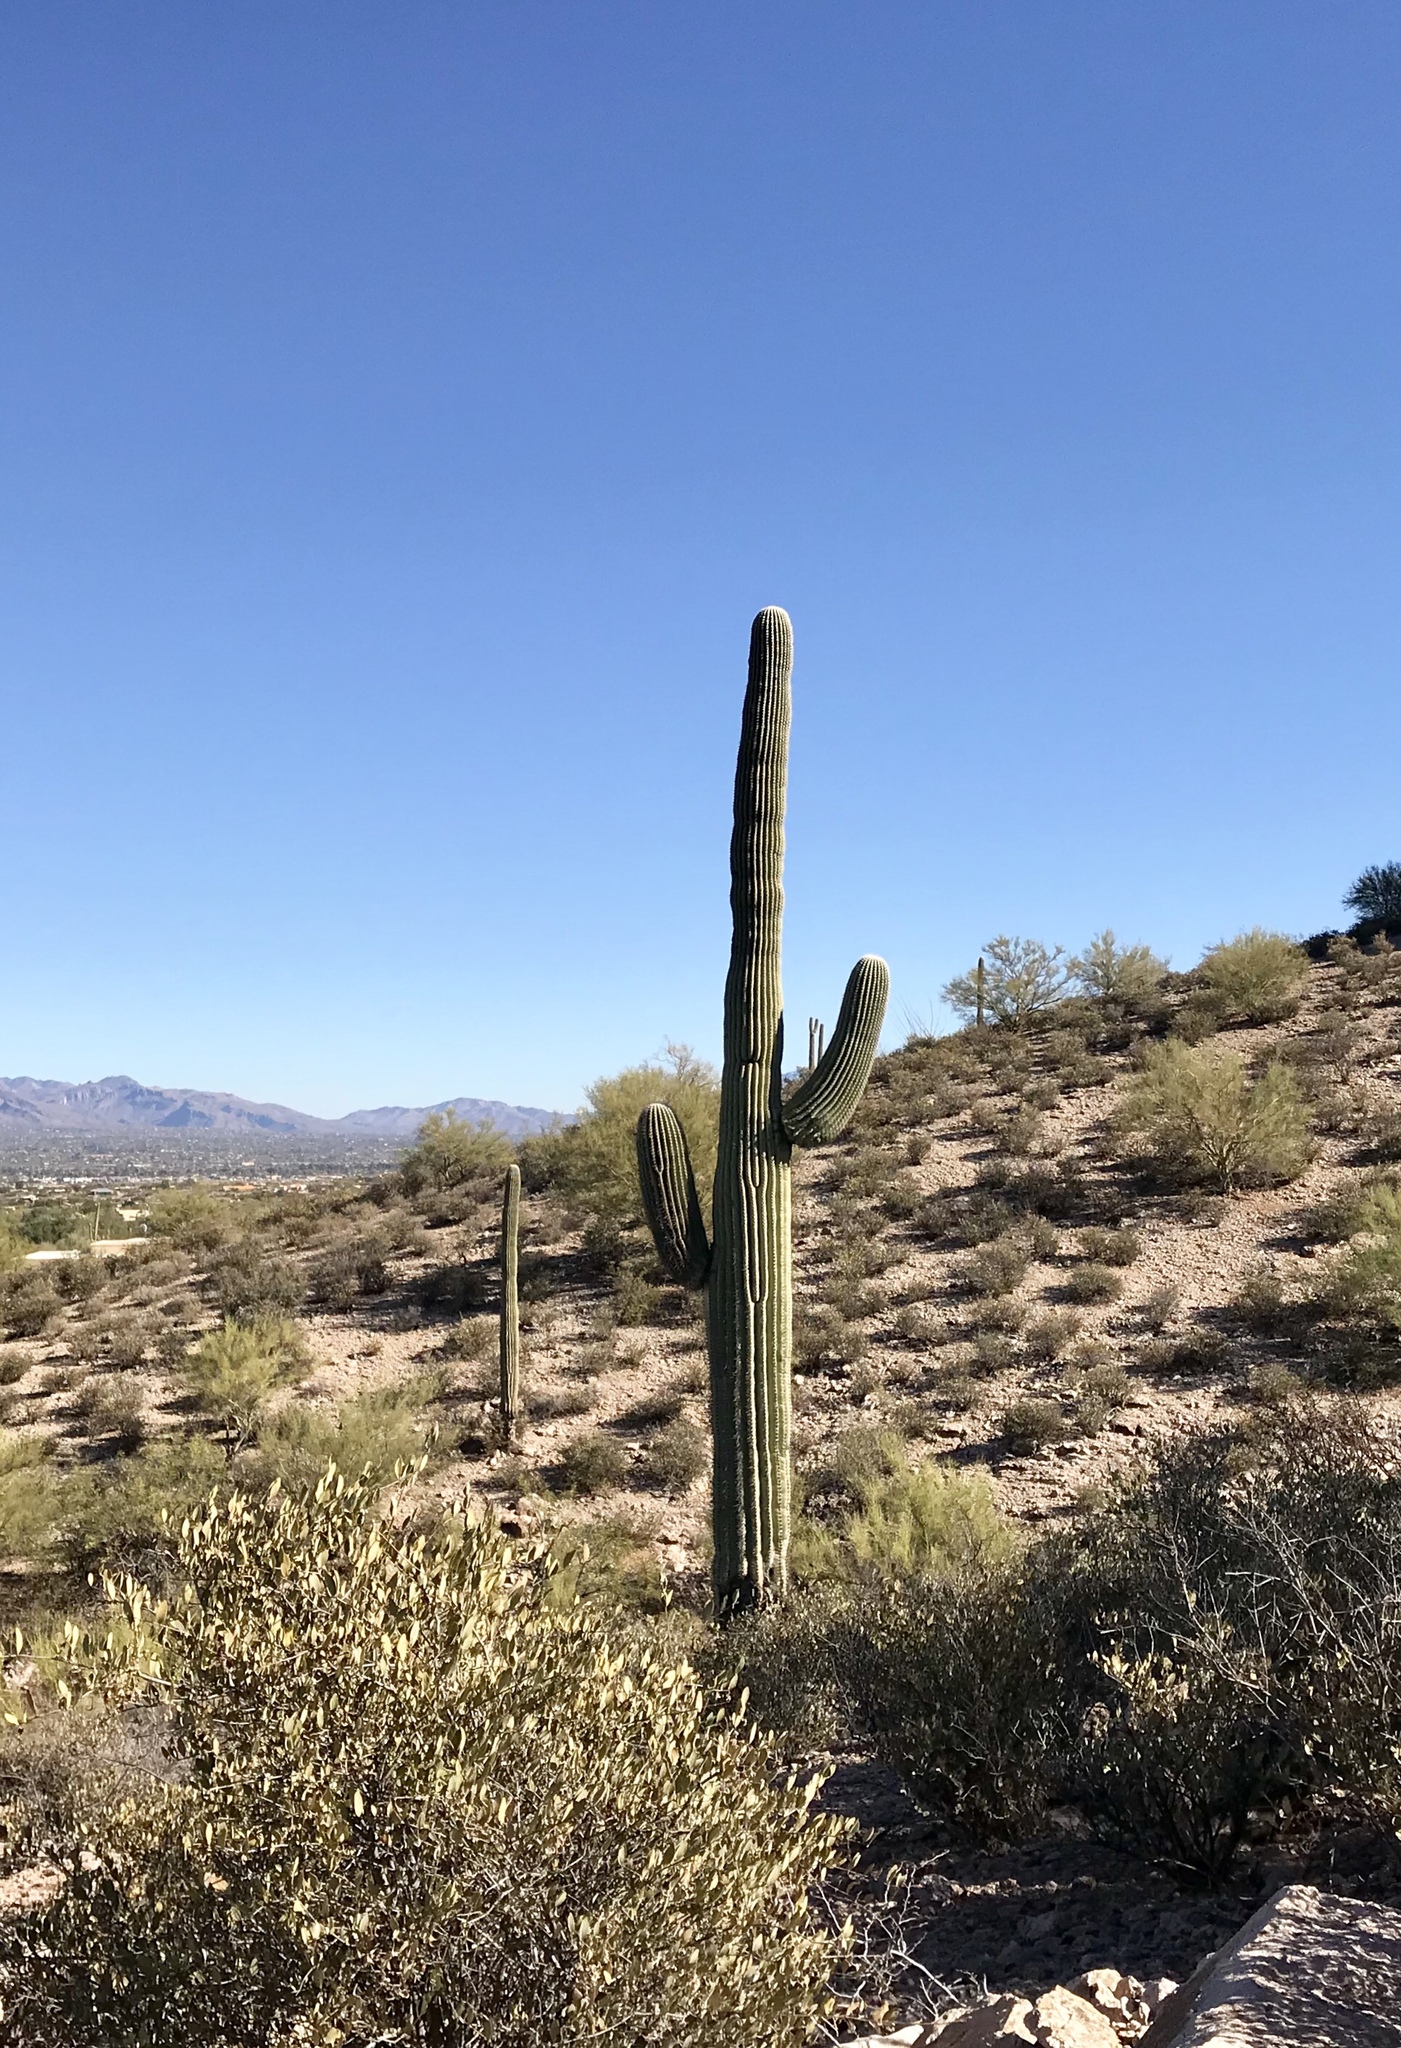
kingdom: Plantae
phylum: Tracheophyta
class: Magnoliopsida
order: Caryophyllales
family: Cactaceae
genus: Carnegiea
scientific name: Carnegiea gigantea
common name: Saguaro
